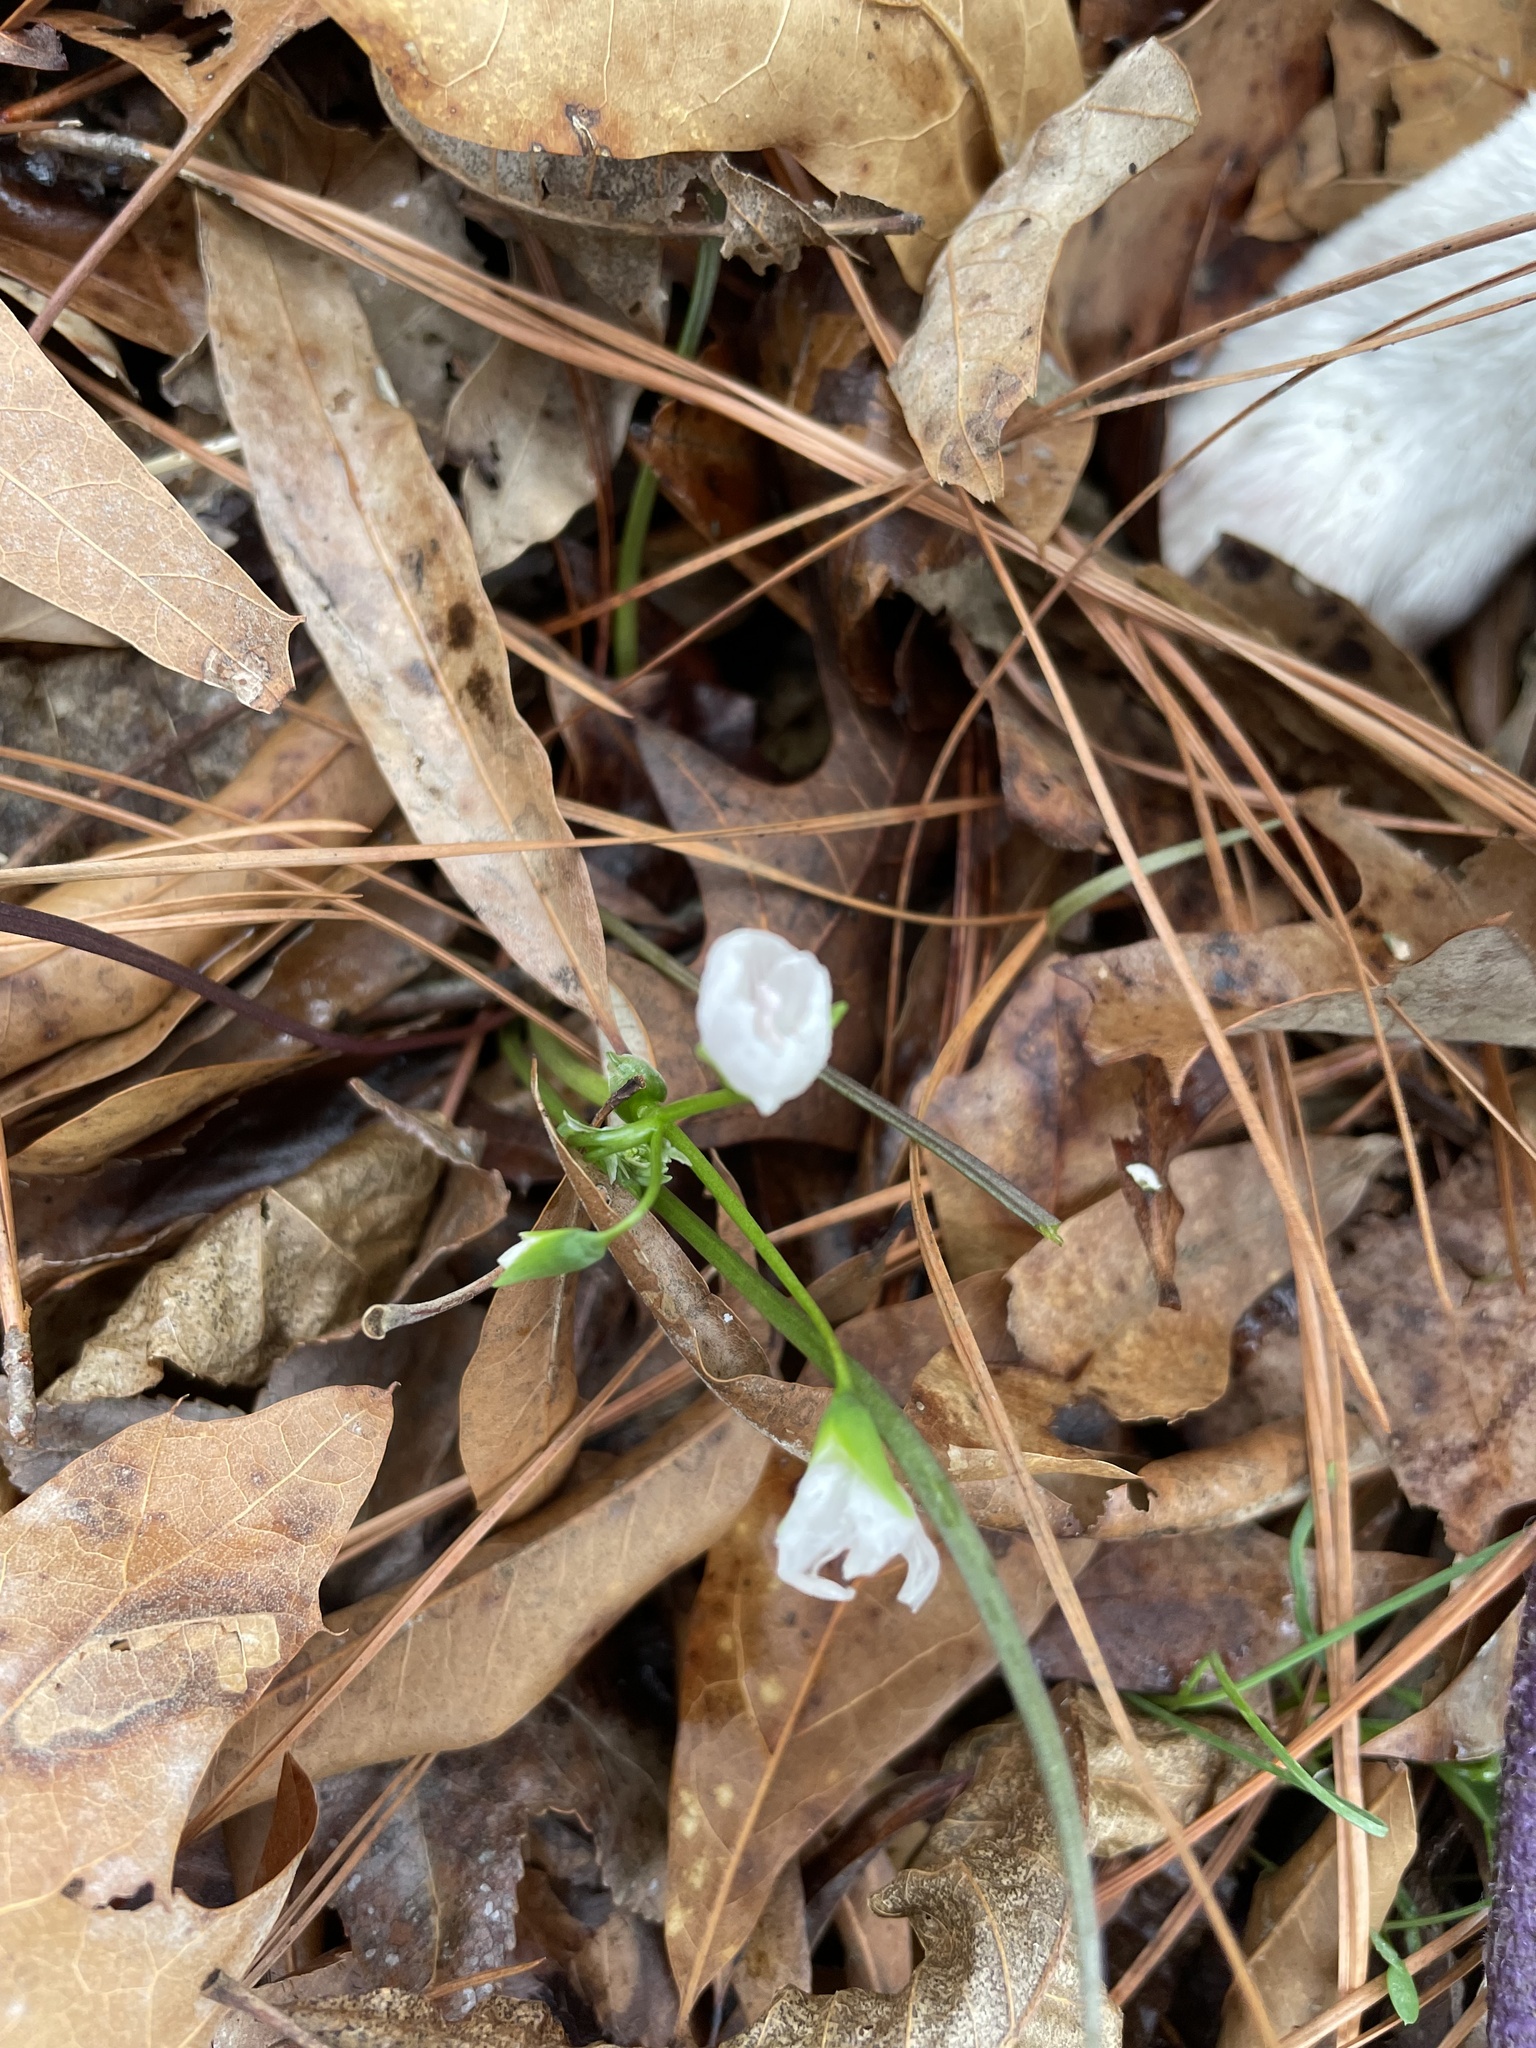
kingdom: Plantae
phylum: Tracheophyta
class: Magnoliopsida
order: Caryophyllales
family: Montiaceae
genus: Claytonia
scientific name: Claytonia virginica
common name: Virginia springbeauty
